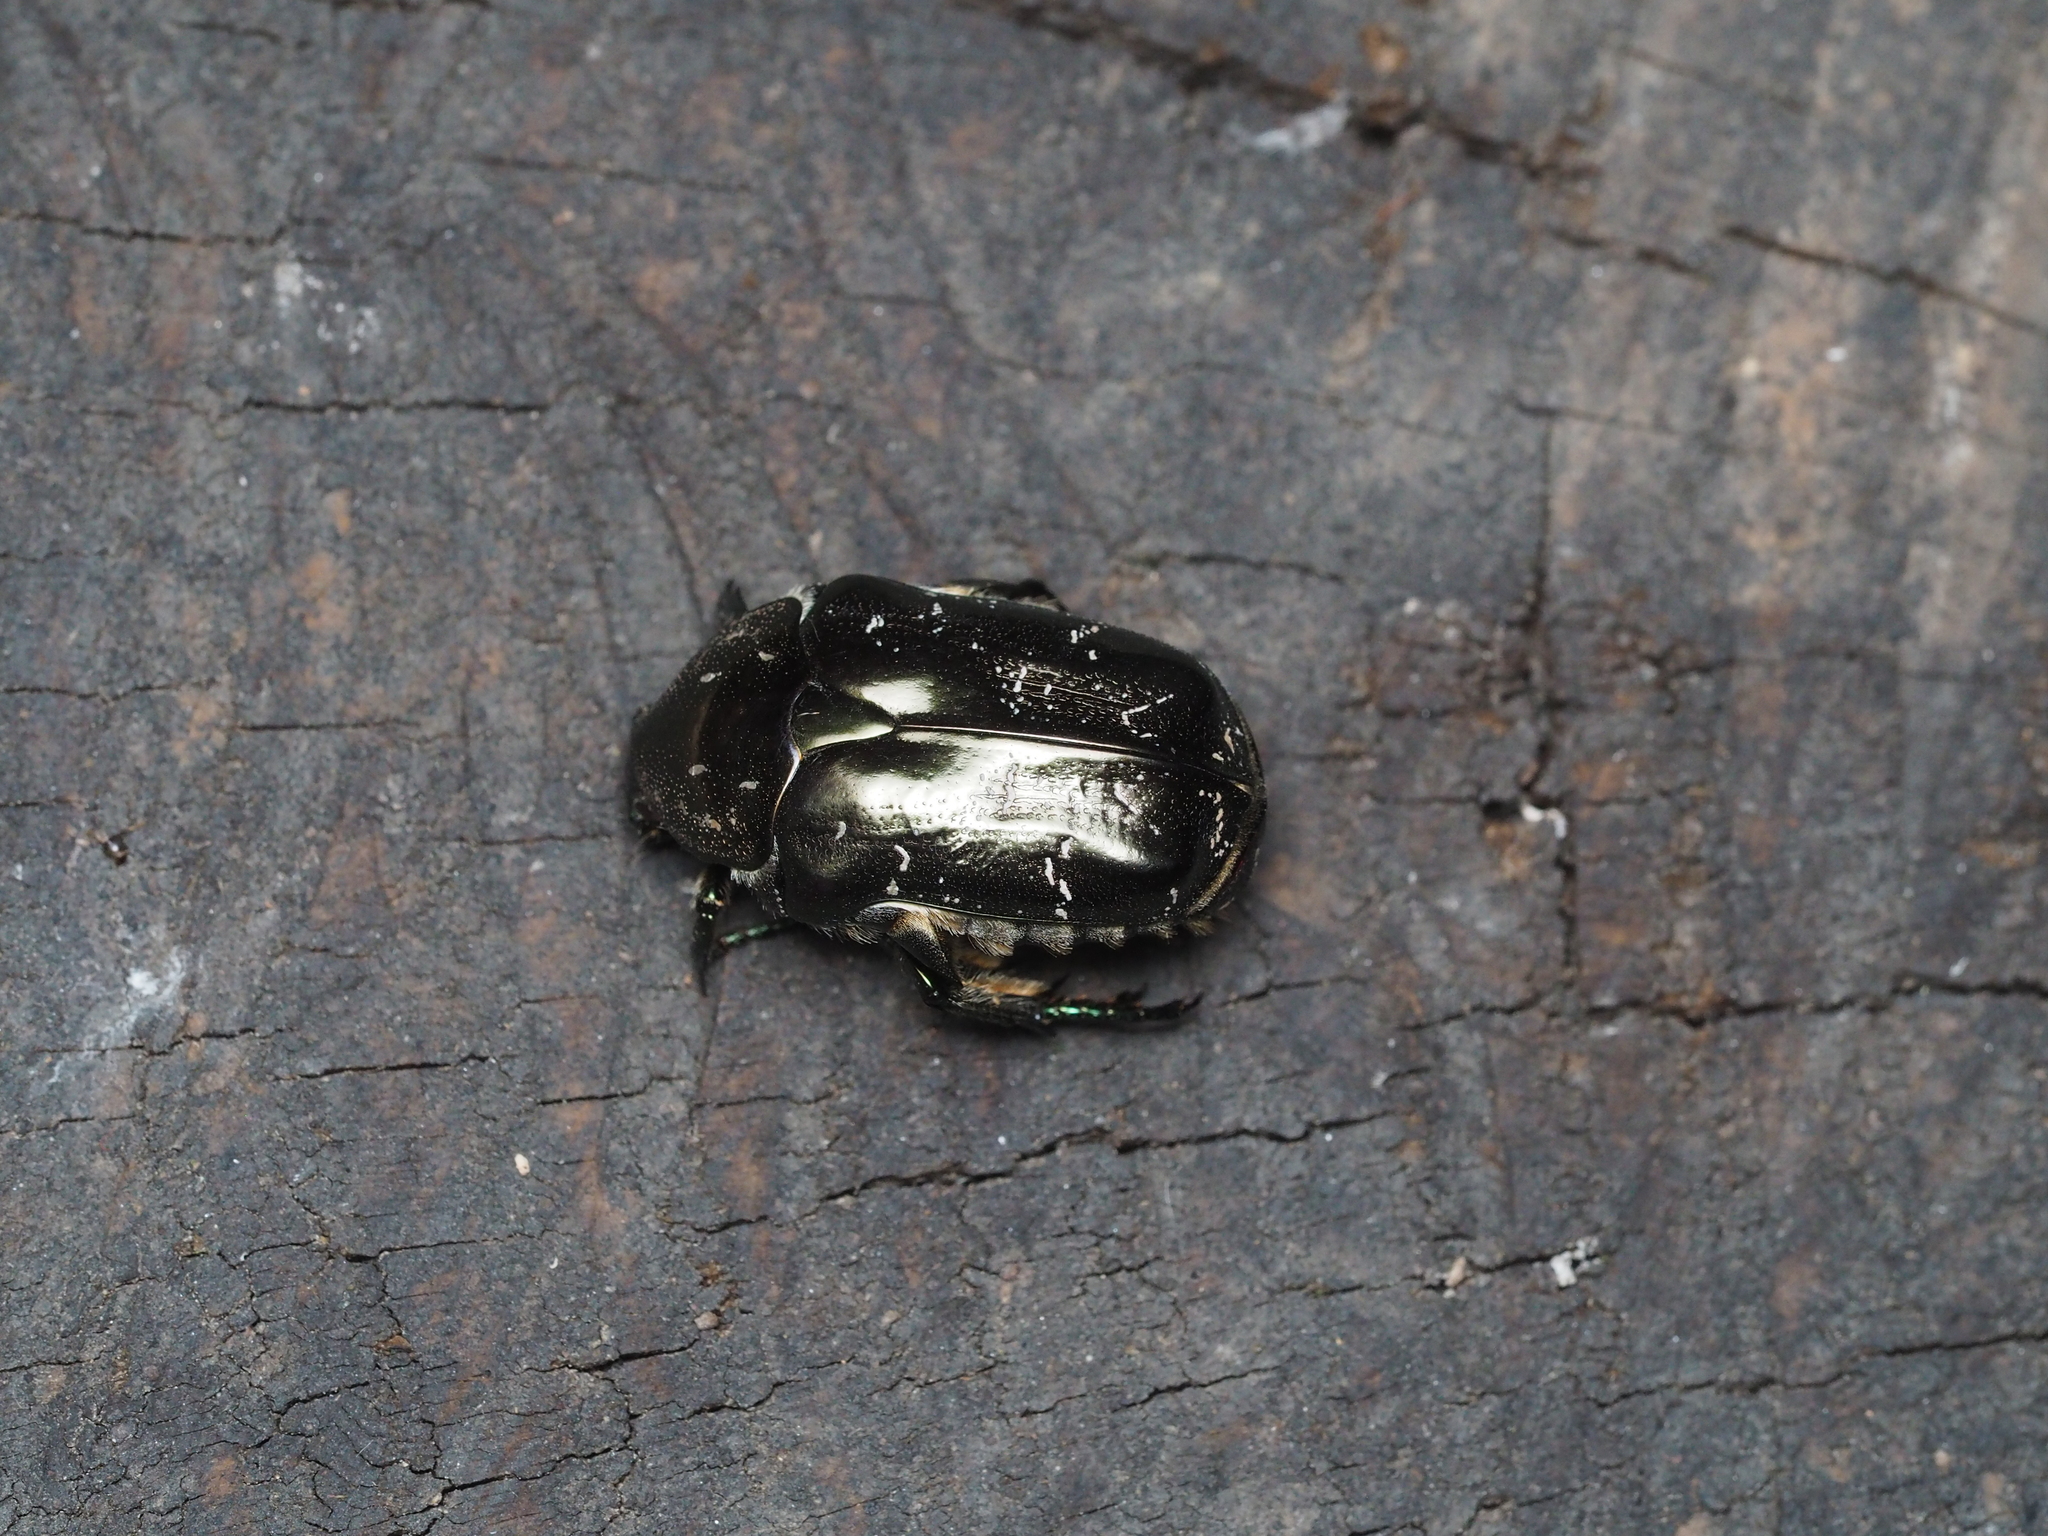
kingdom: Animalia
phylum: Arthropoda
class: Insecta
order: Coleoptera
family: Scarabaeidae
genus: Protaetia
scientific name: Protaetia marmorata
